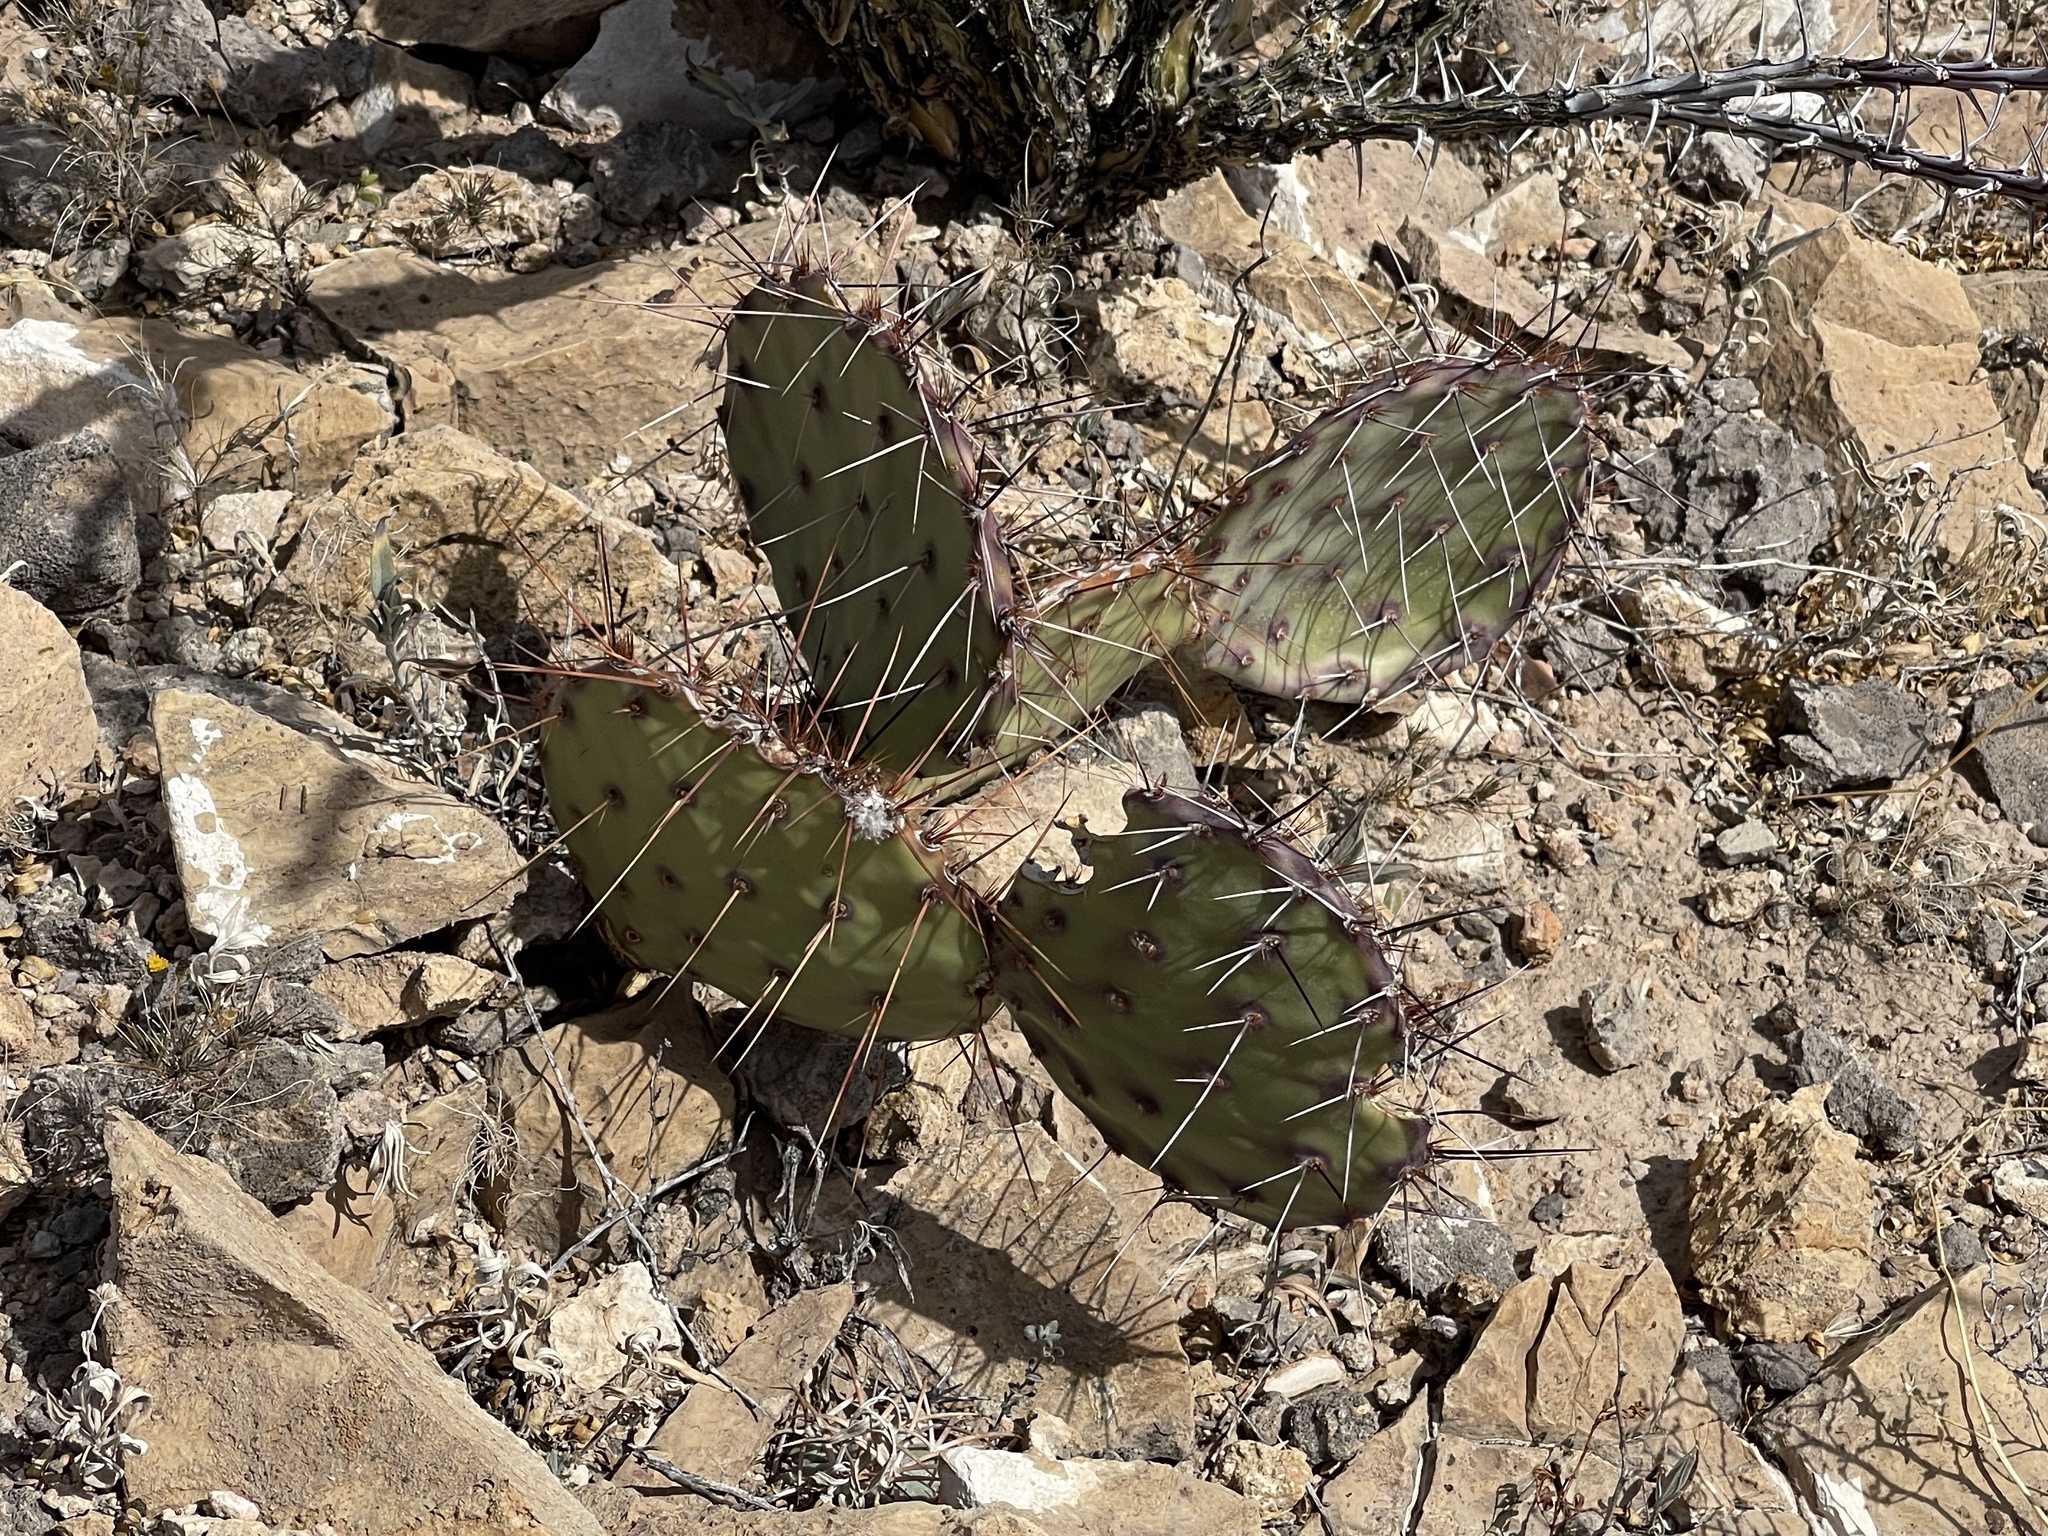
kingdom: Plantae
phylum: Tracheophyta
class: Magnoliopsida
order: Caryophyllales
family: Cactaceae
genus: Opuntia
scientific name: Opuntia engelmannii
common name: Cactus-apple
